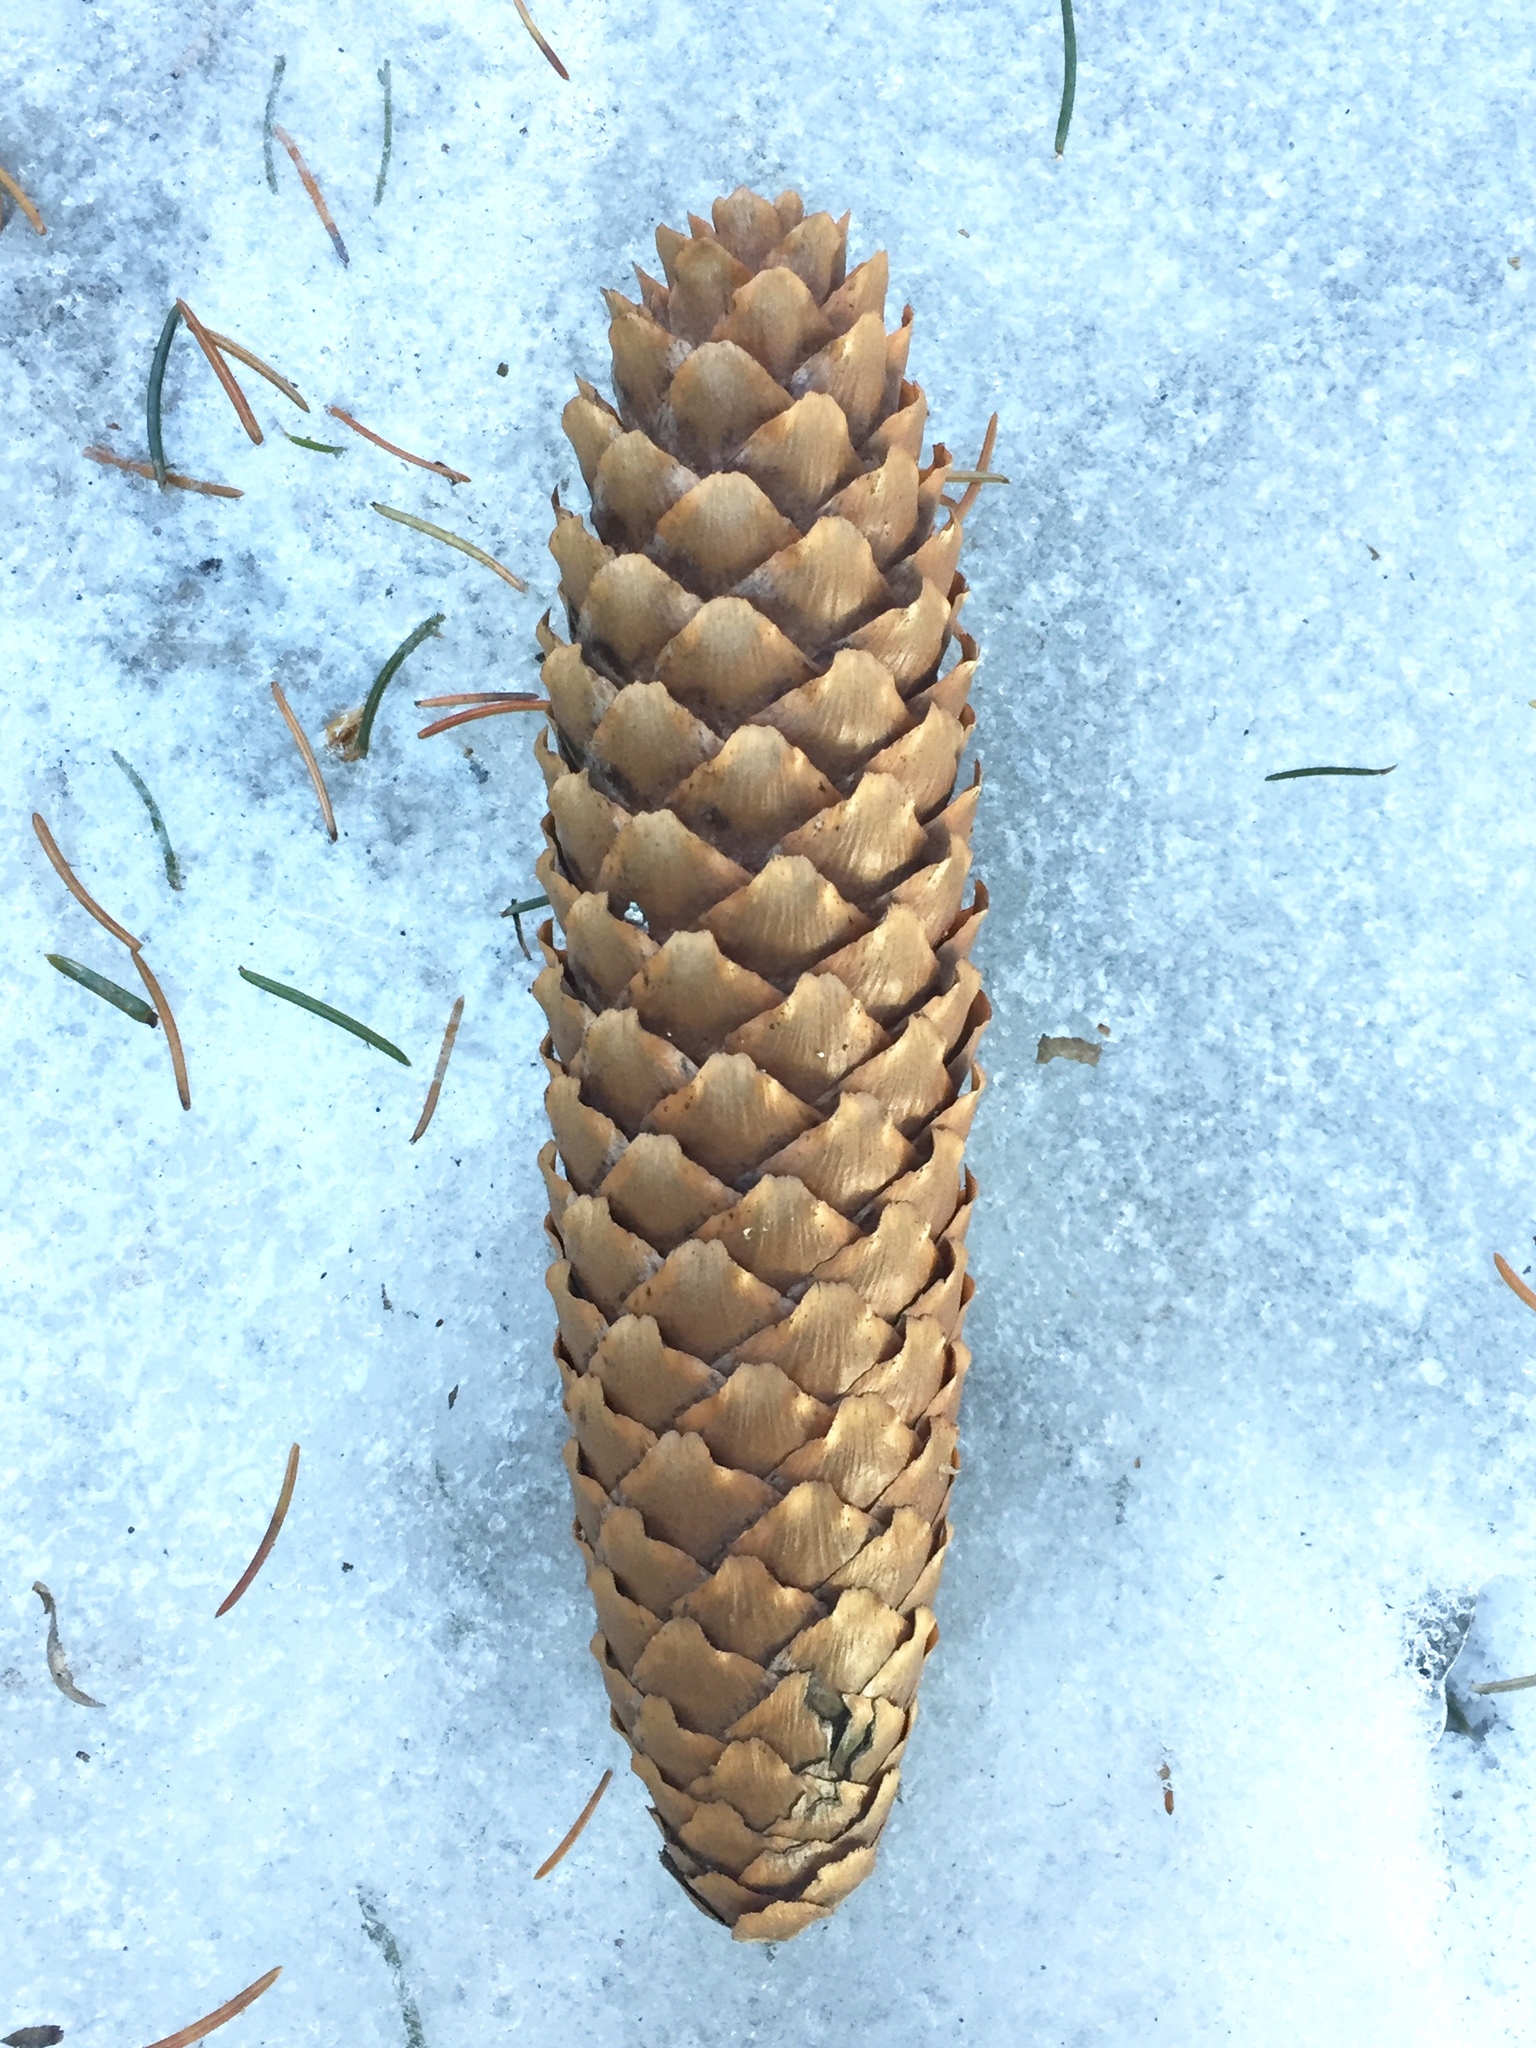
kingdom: Plantae
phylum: Tracheophyta
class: Pinopsida
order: Pinales
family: Pinaceae
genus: Picea
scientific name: Picea abies
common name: Norway spruce
